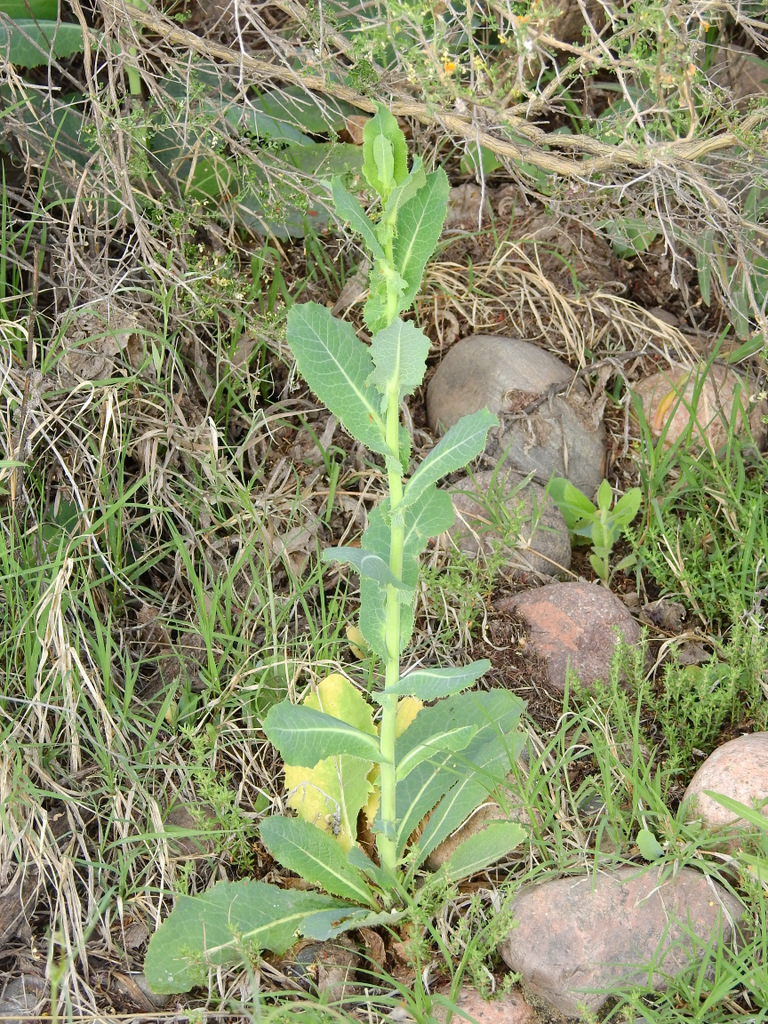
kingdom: Plantae
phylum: Tracheophyta
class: Magnoliopsida
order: Asterales
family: Asteraceae
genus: Lactuca
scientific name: Lactuca serriola
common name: Prickly lettuce
